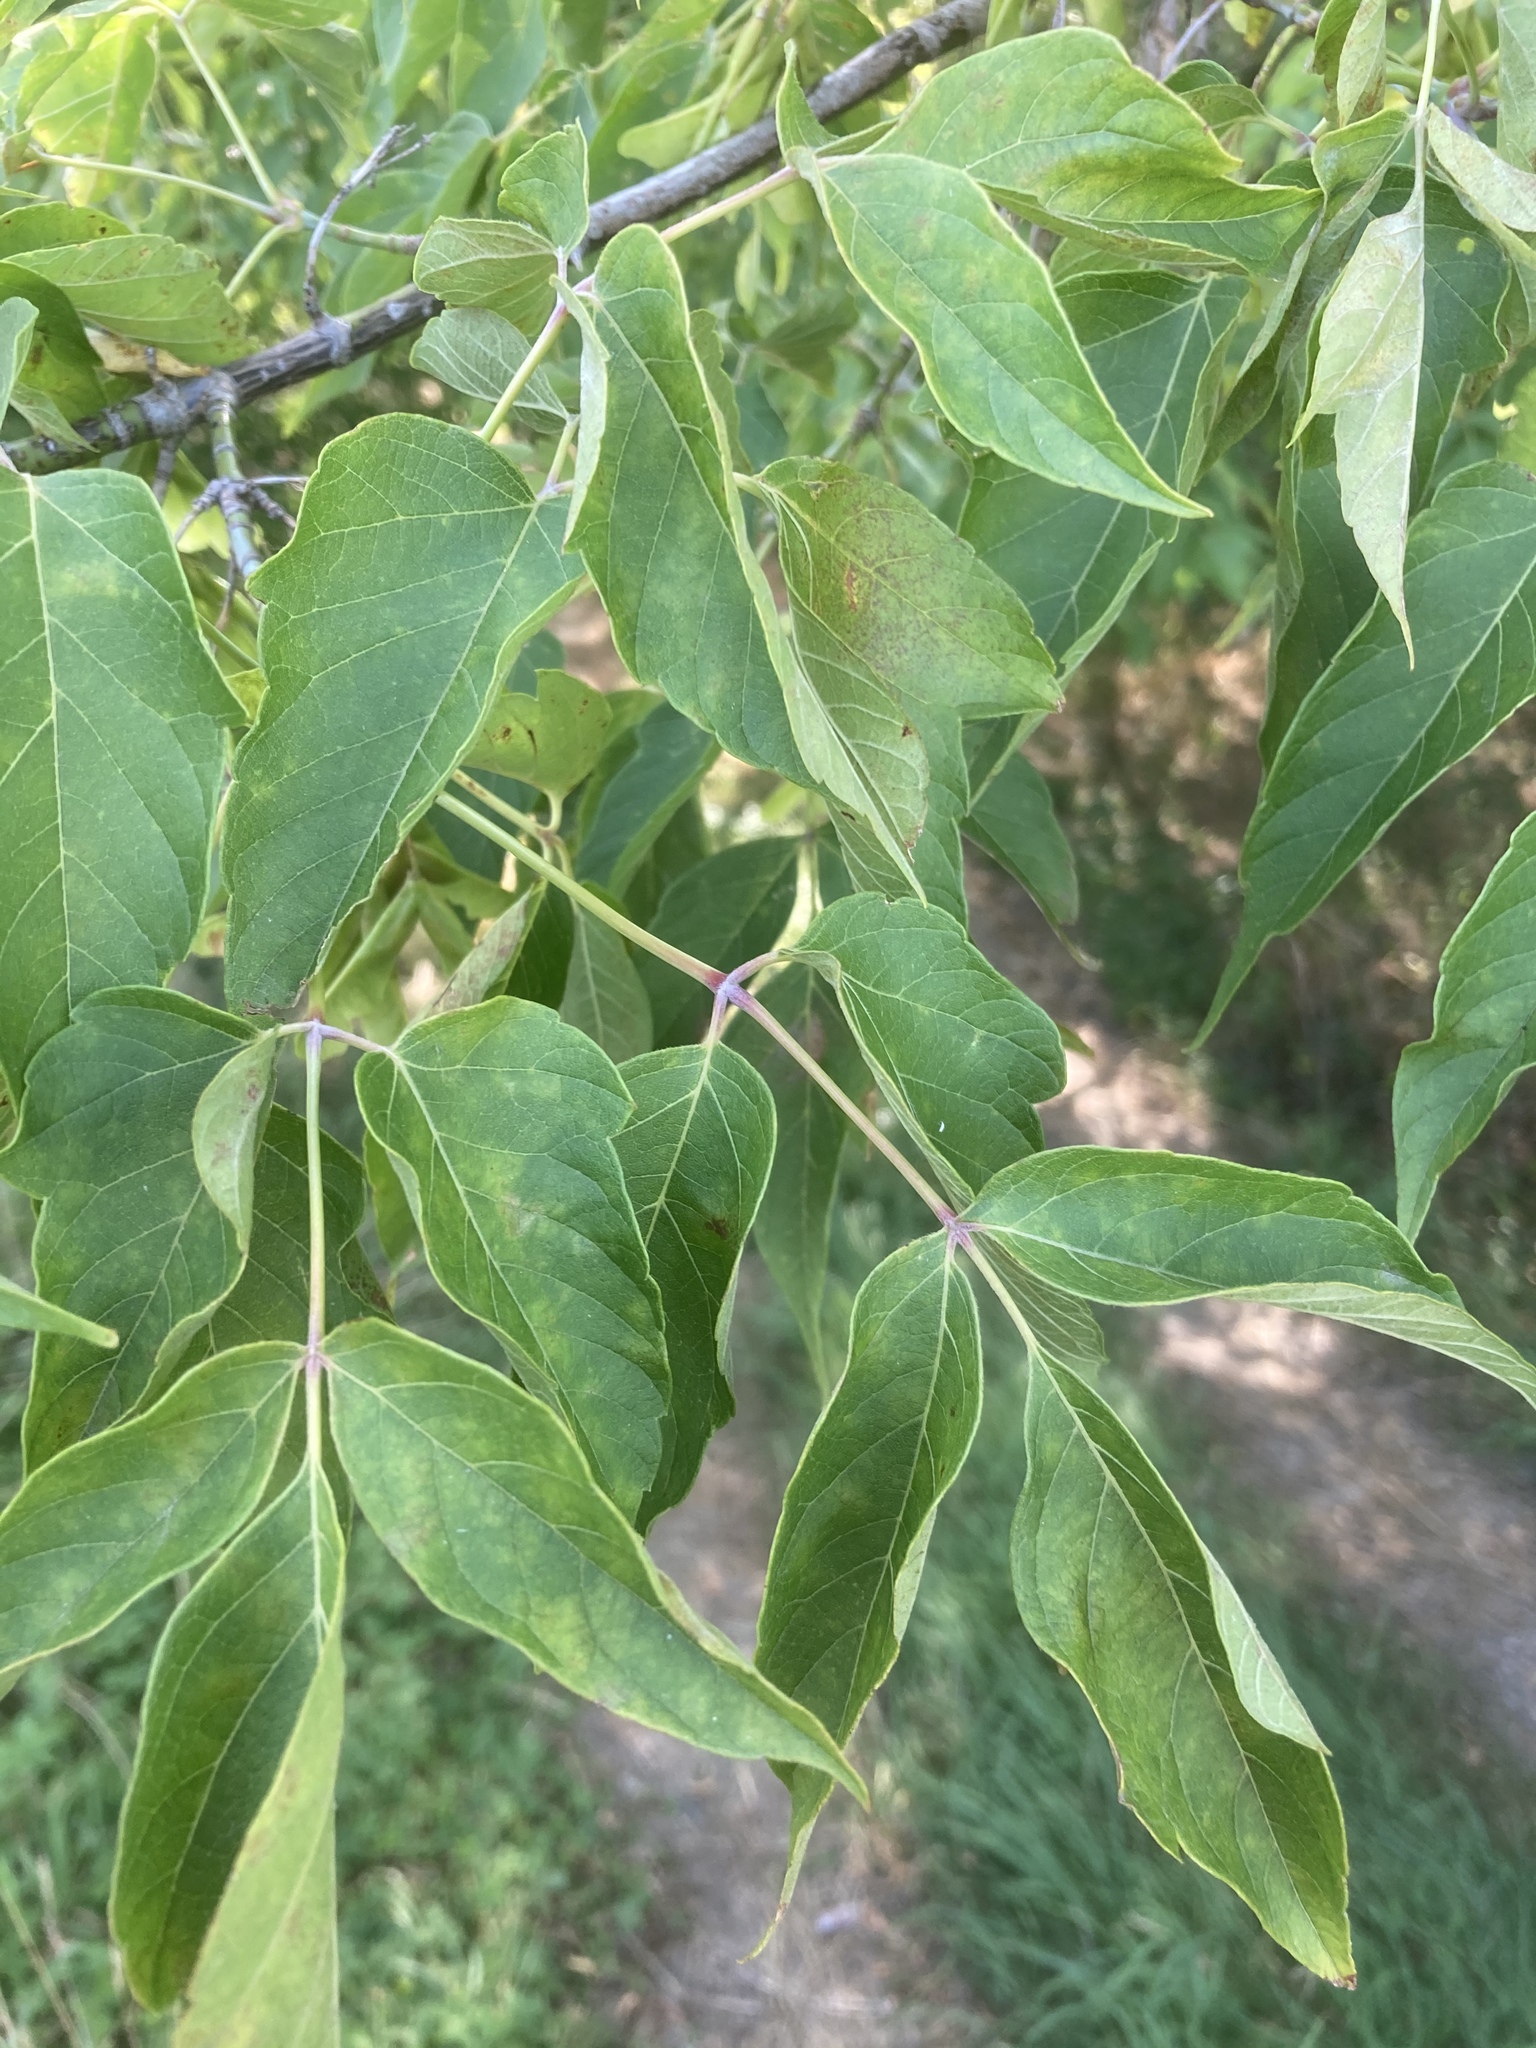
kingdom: Plantae
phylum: Tracheophyta
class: Magnoliopsida
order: Sapindales
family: Sapindaceae
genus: Acer
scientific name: Acer negundo
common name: Ashleaf maple
